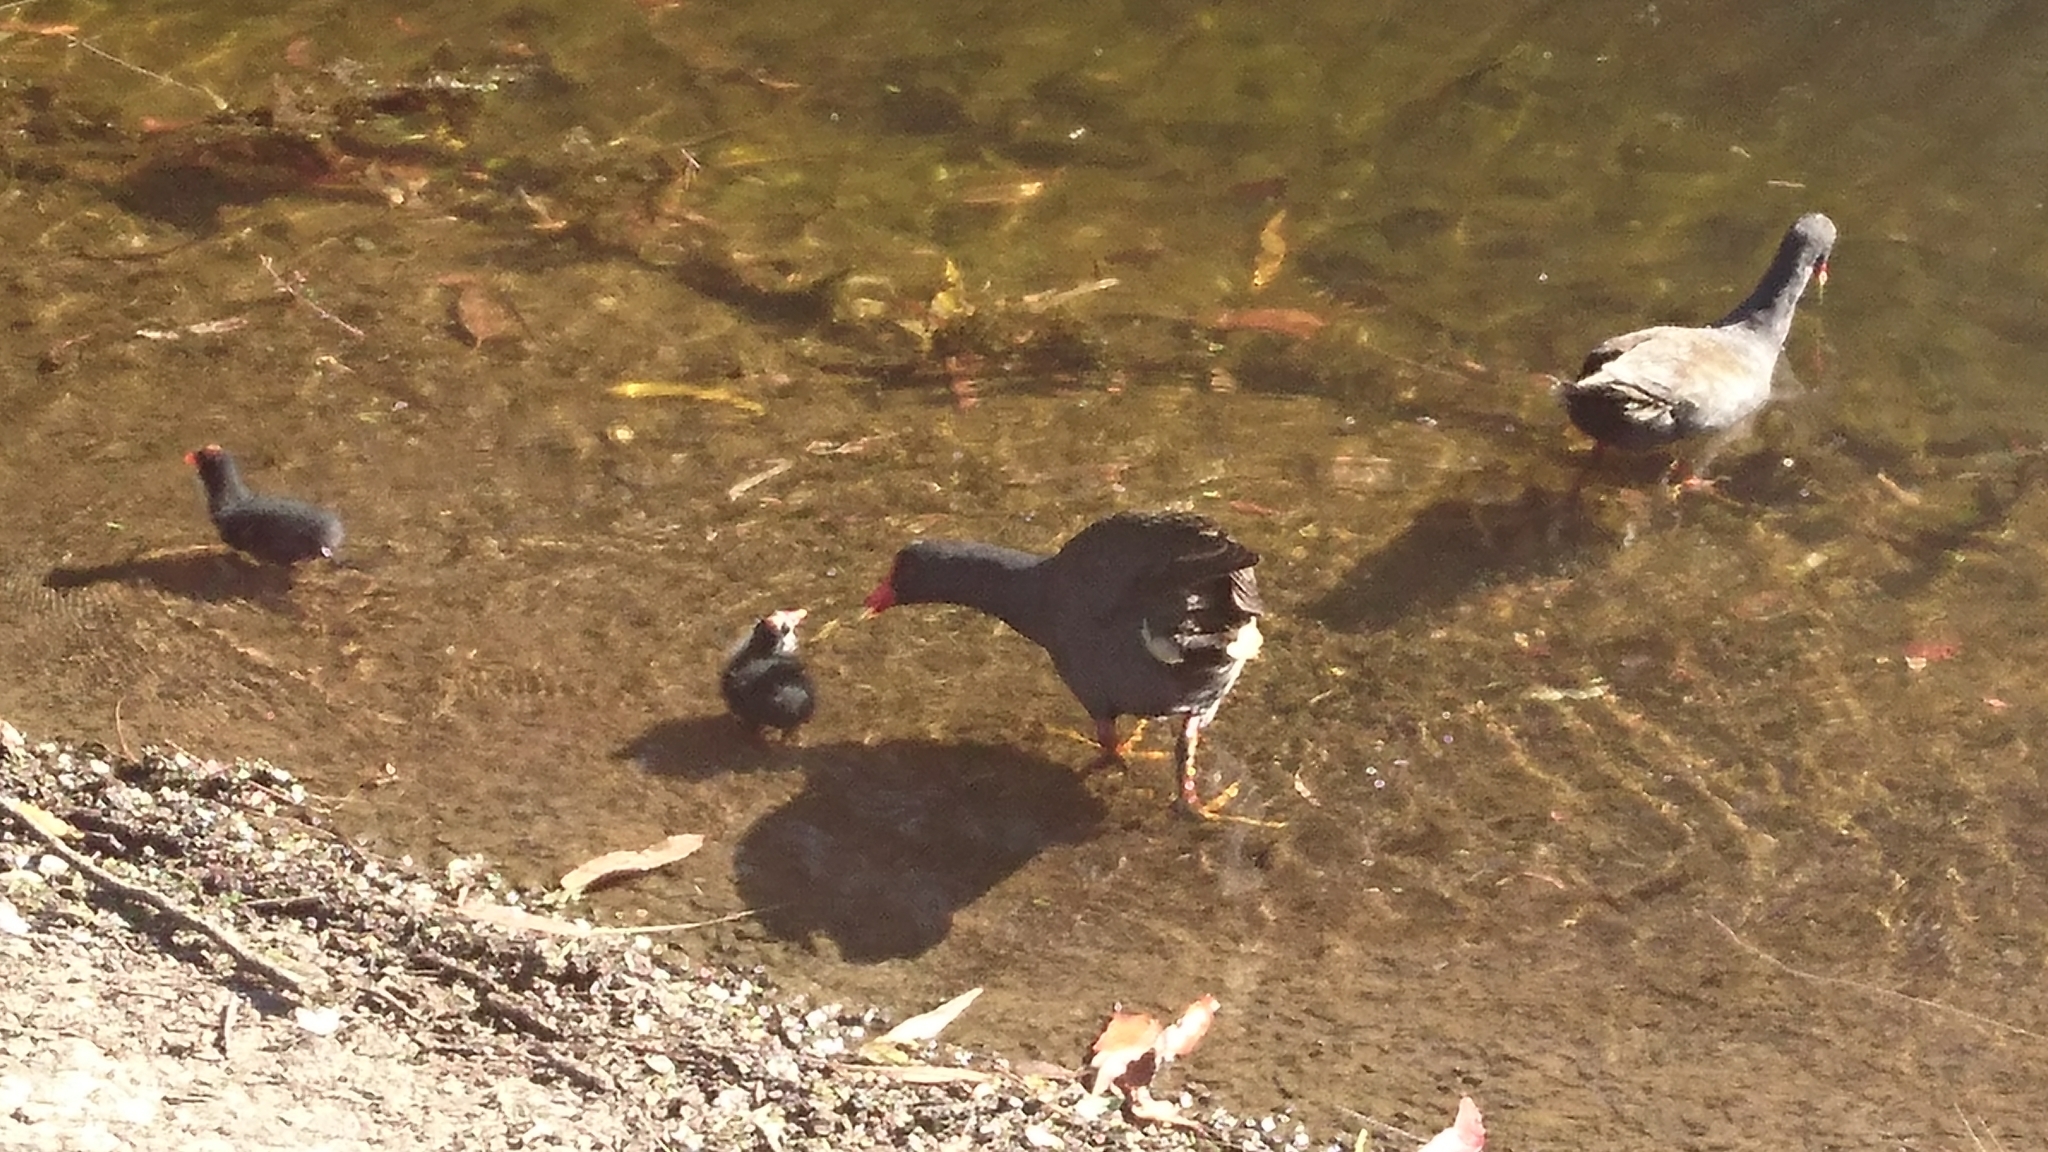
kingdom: Animalia
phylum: Chordata
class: Aves
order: Gruiformes
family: Rallidae
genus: Gallinula
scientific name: Gallinula tenebrosa
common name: Dusky moorhen
